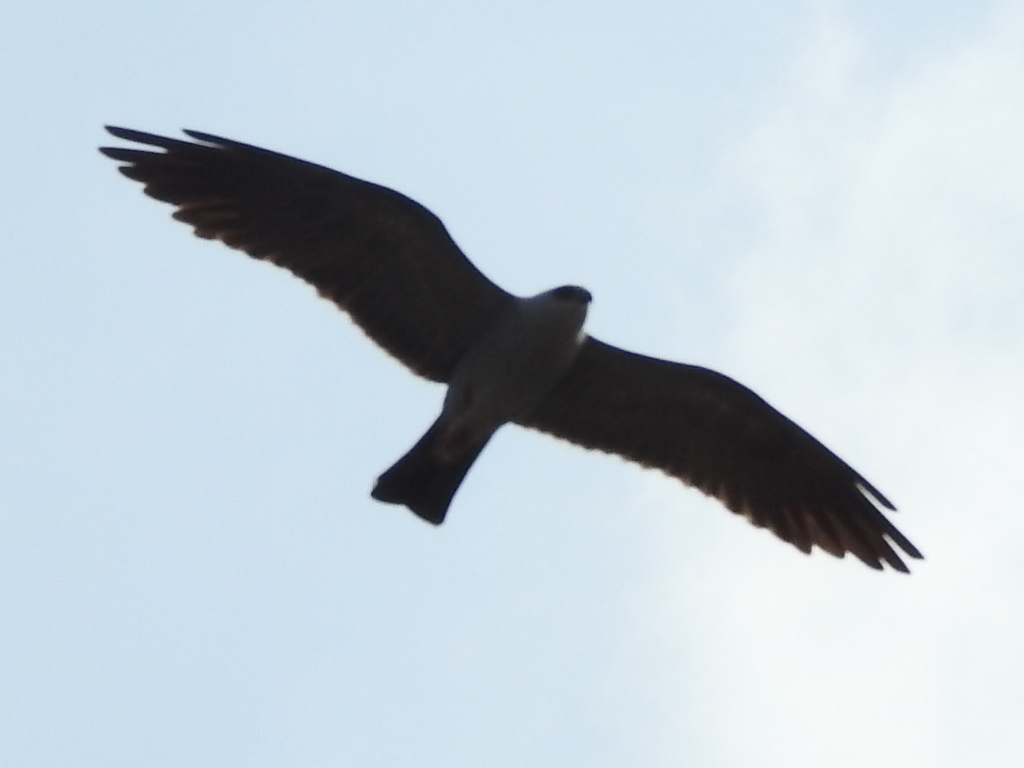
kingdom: Animalia
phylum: Chordata
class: Aves
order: Accipitriformes
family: Accipitridae
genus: Ictinia
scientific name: Ictinia mississippiensis
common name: Mississippi kite
